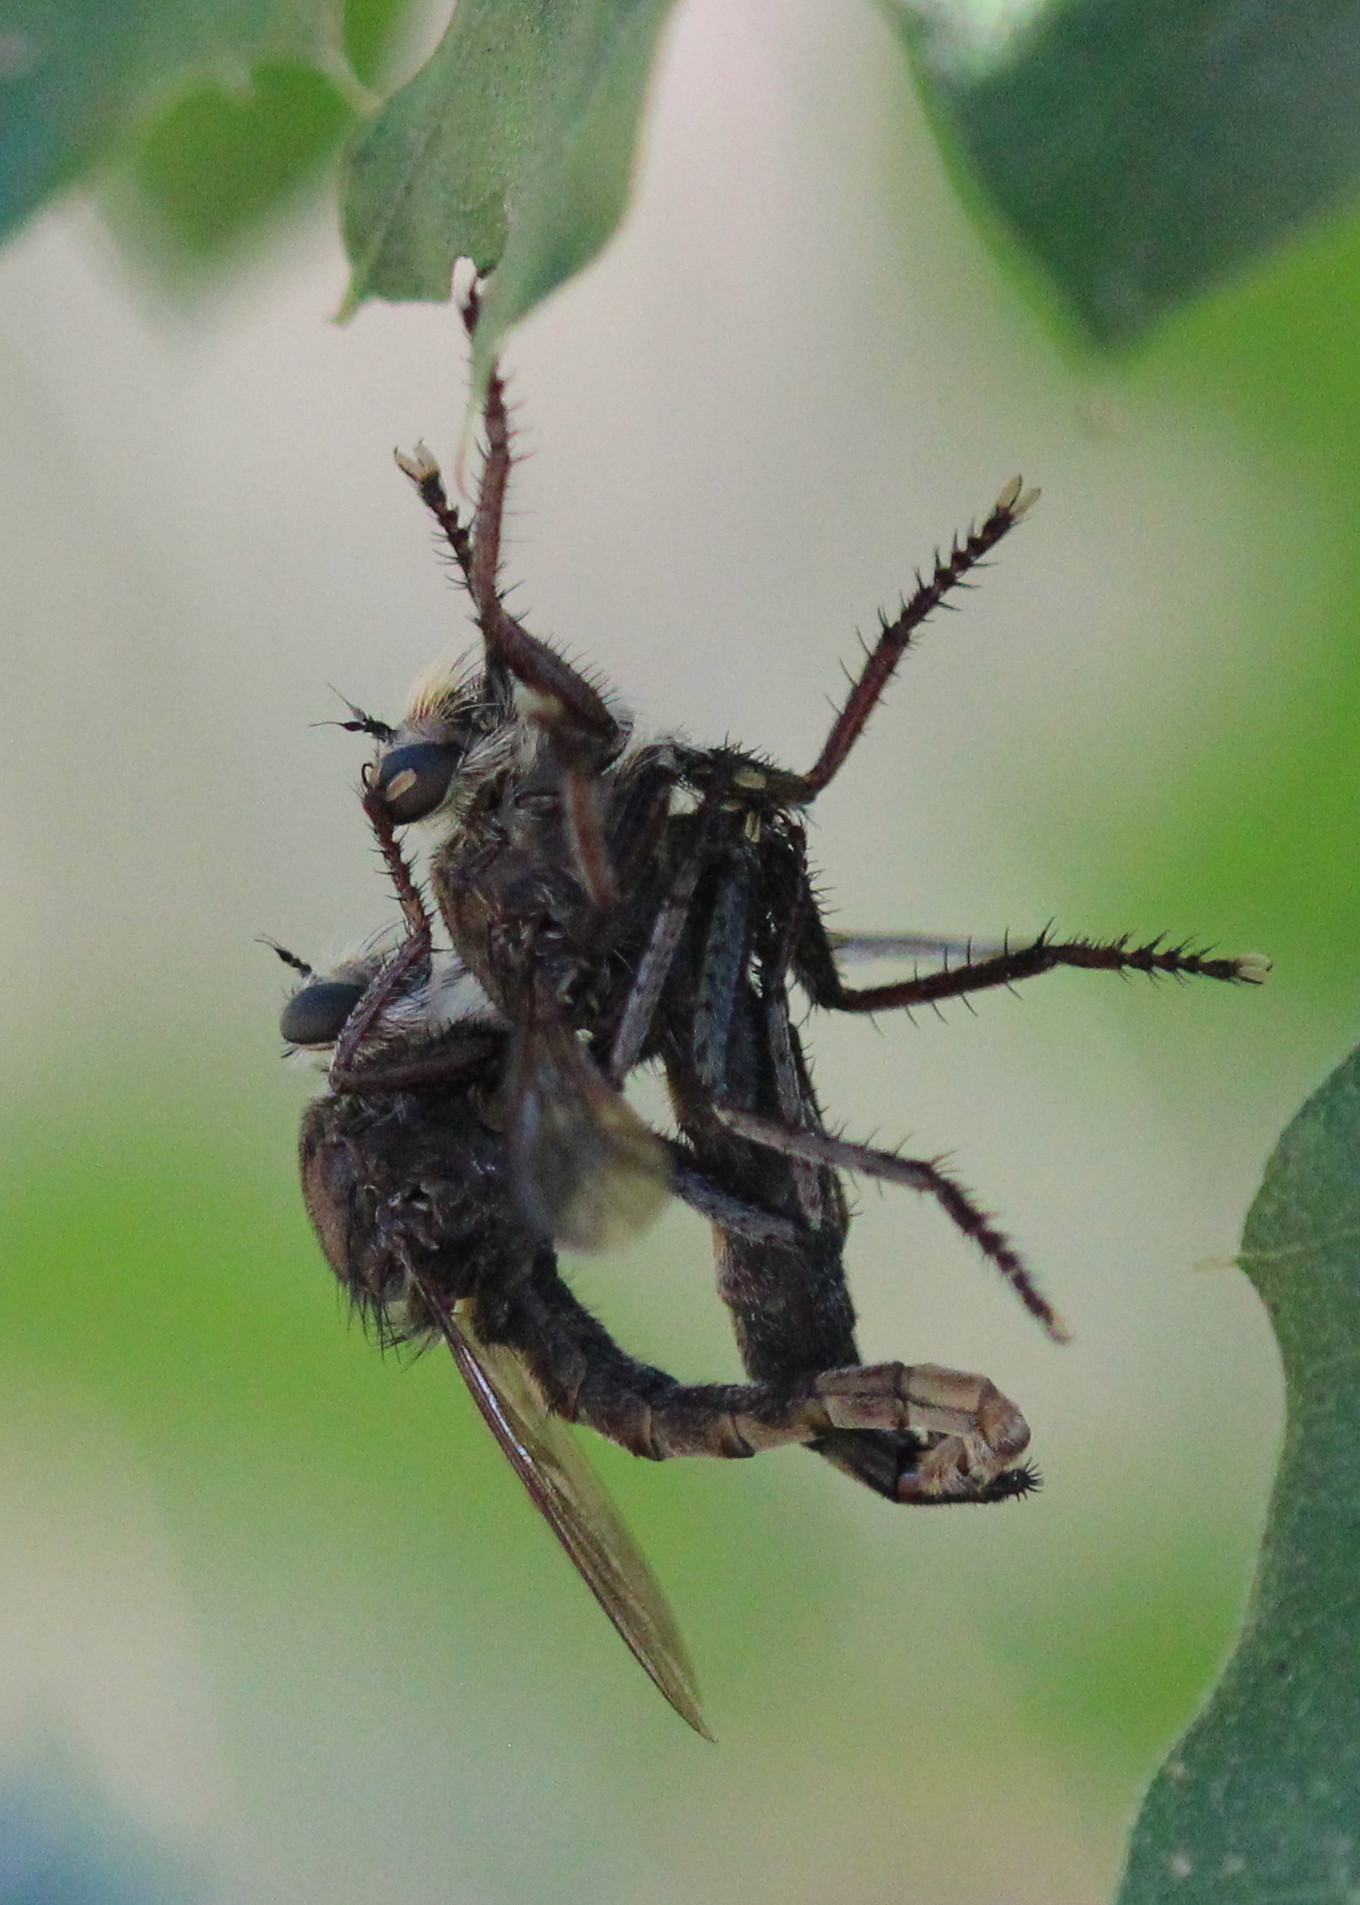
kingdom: Animalia
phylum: Arthropoda
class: Insecta
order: Diptera
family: Asilidae
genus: Proctacanthus
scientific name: Proctacanthus philadelphicus
